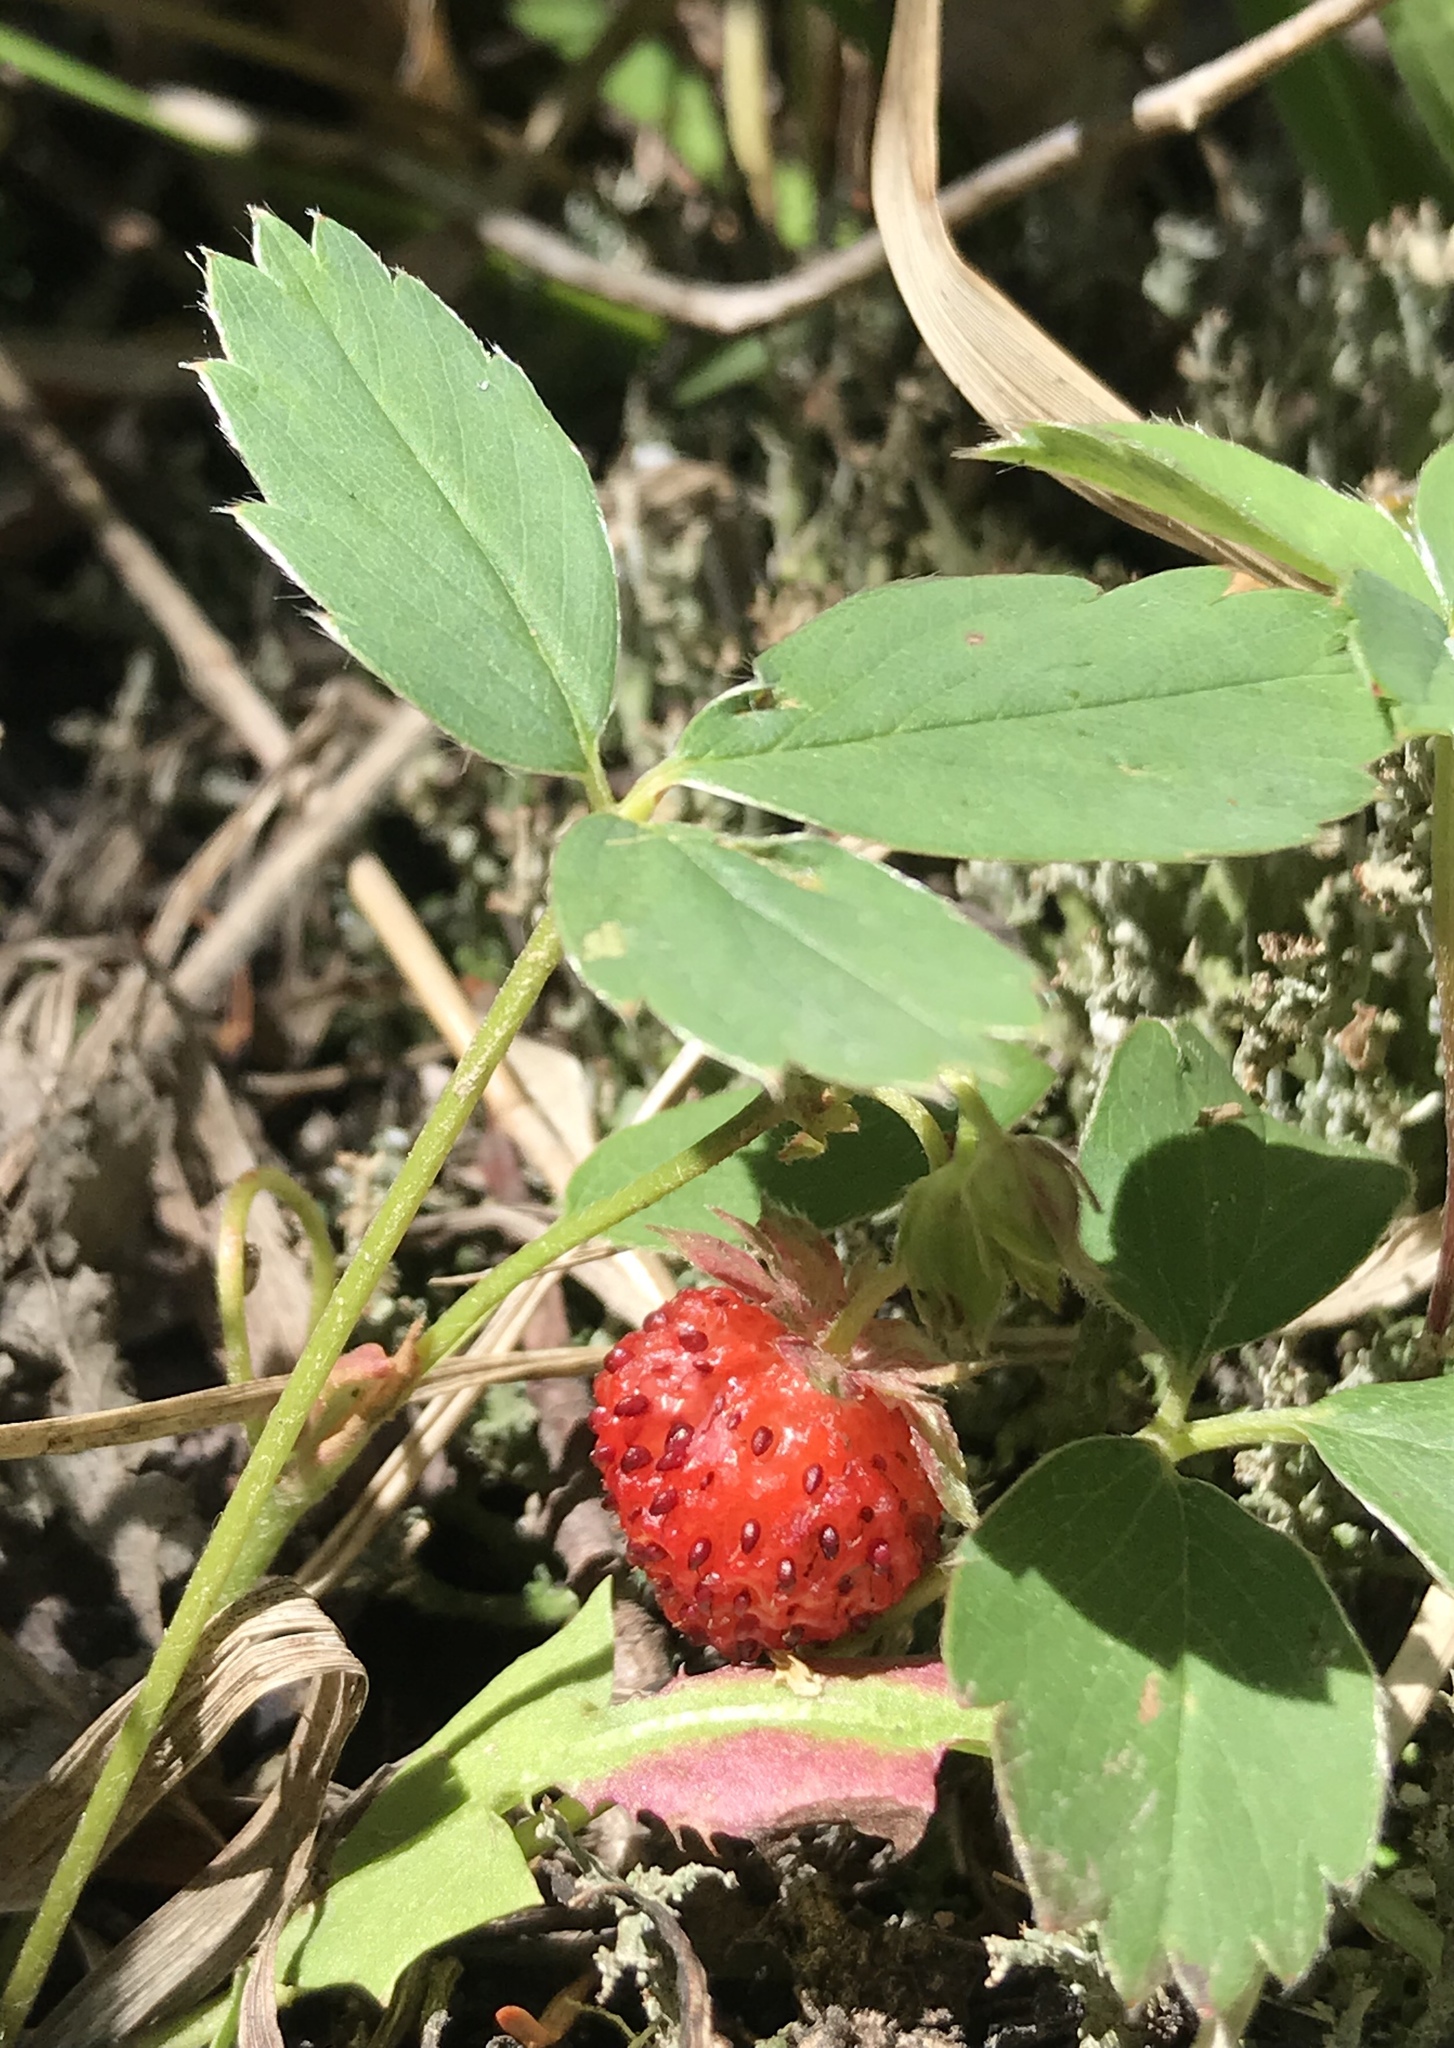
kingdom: Plantae
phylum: Tracheophyta
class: Magnoliopsida
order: Rosales
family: Rosaceae
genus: Fragaria
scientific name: Fragaria virginiana
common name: Thickleaved wild strawberry
